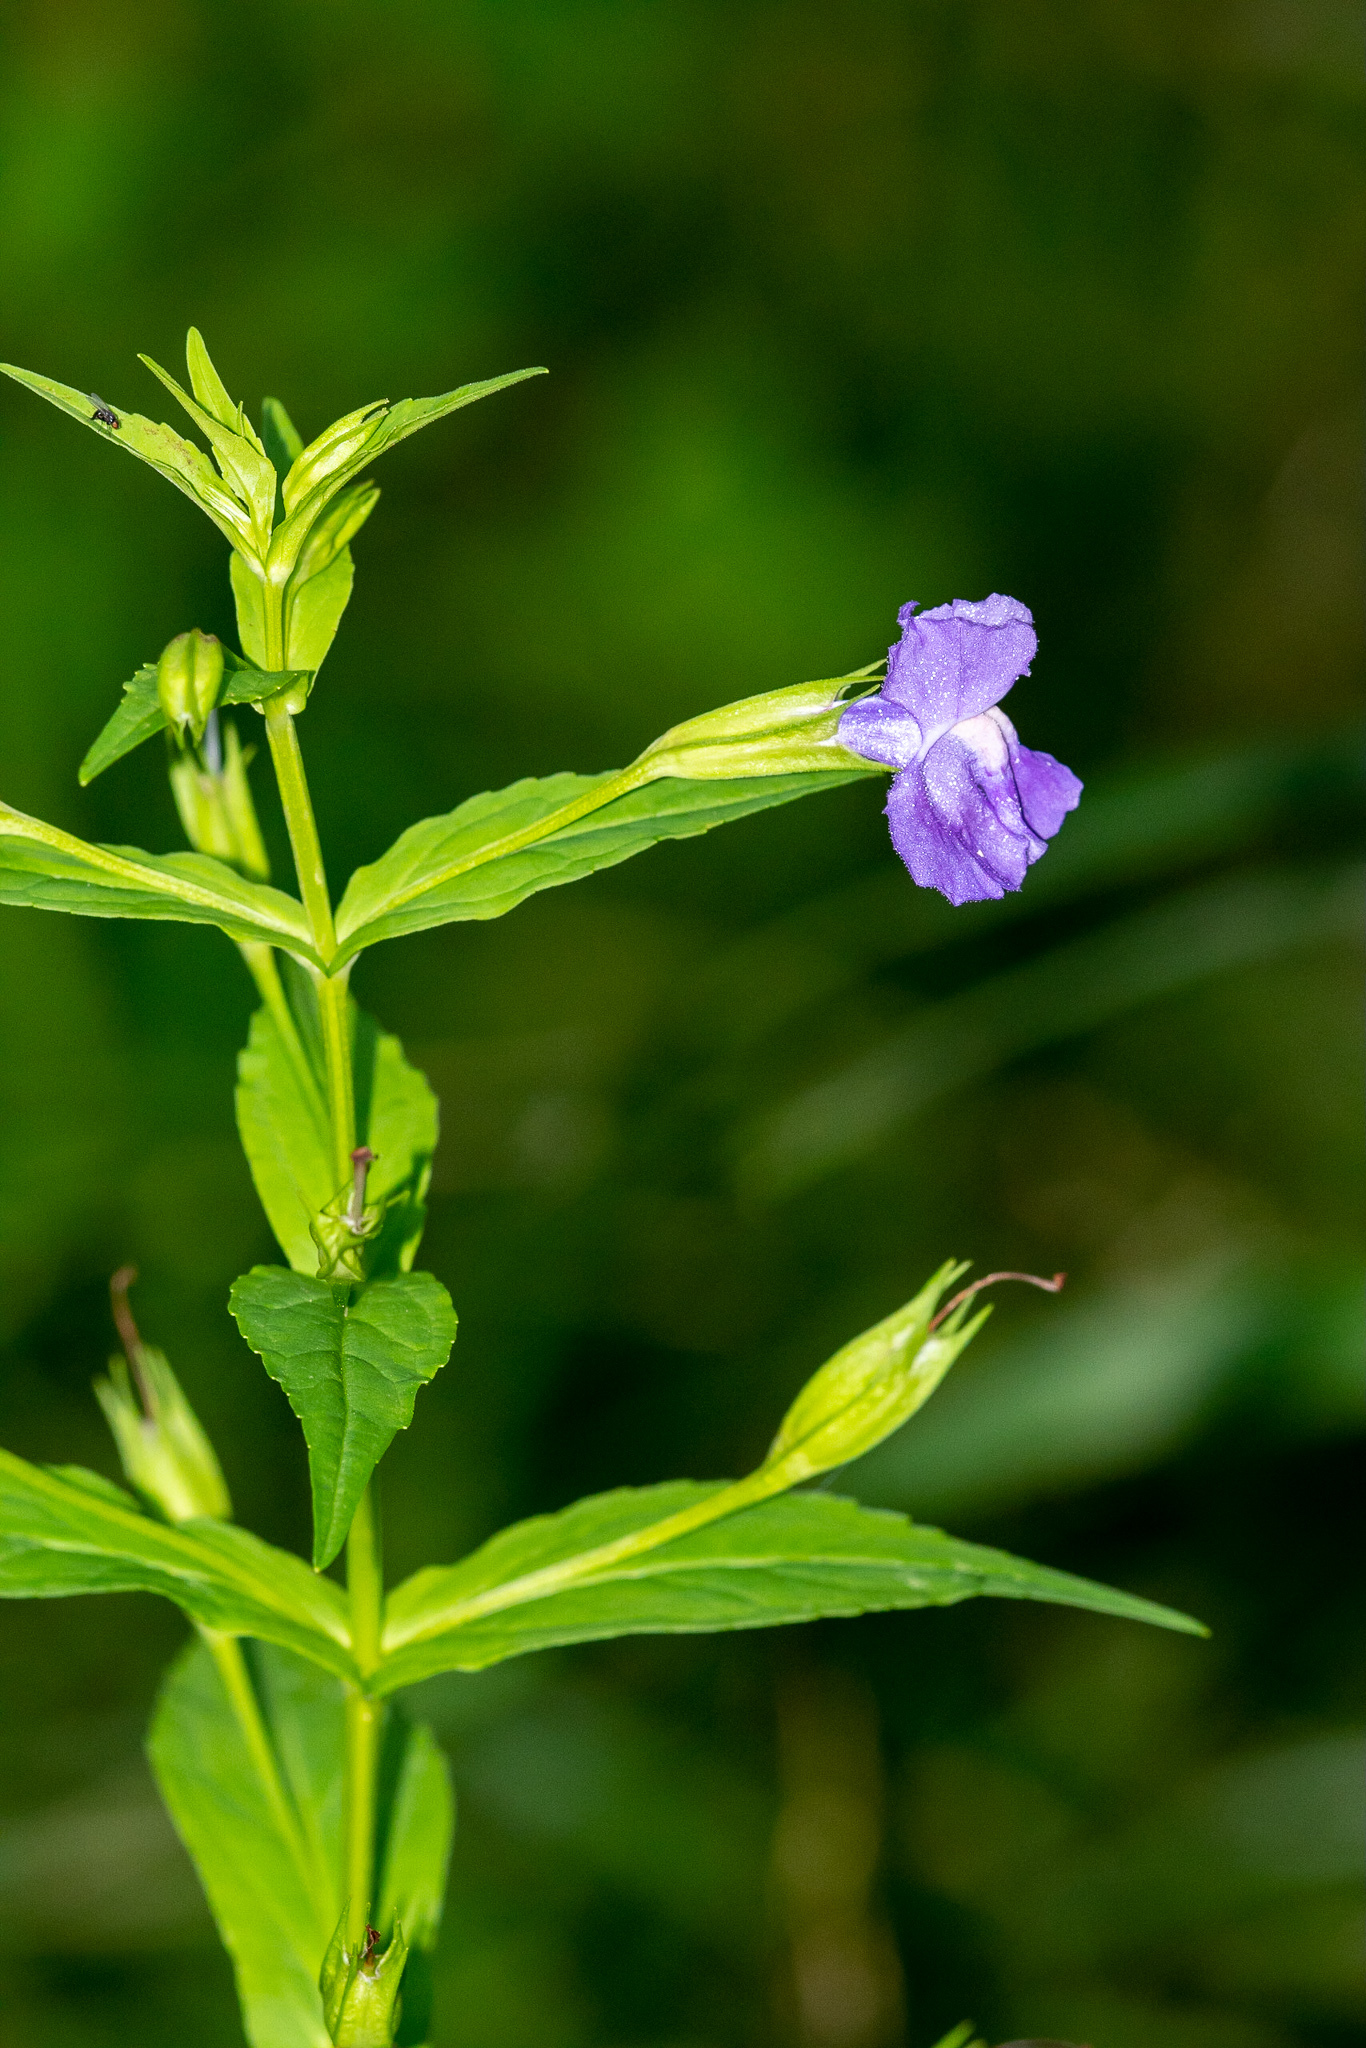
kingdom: Plantae
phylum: Tracheophyta
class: Magnoliopsida
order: Lamiales
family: Phrymaceae
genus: Mimulus
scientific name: Mimulus ringens
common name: Allegheny monkeyflower
